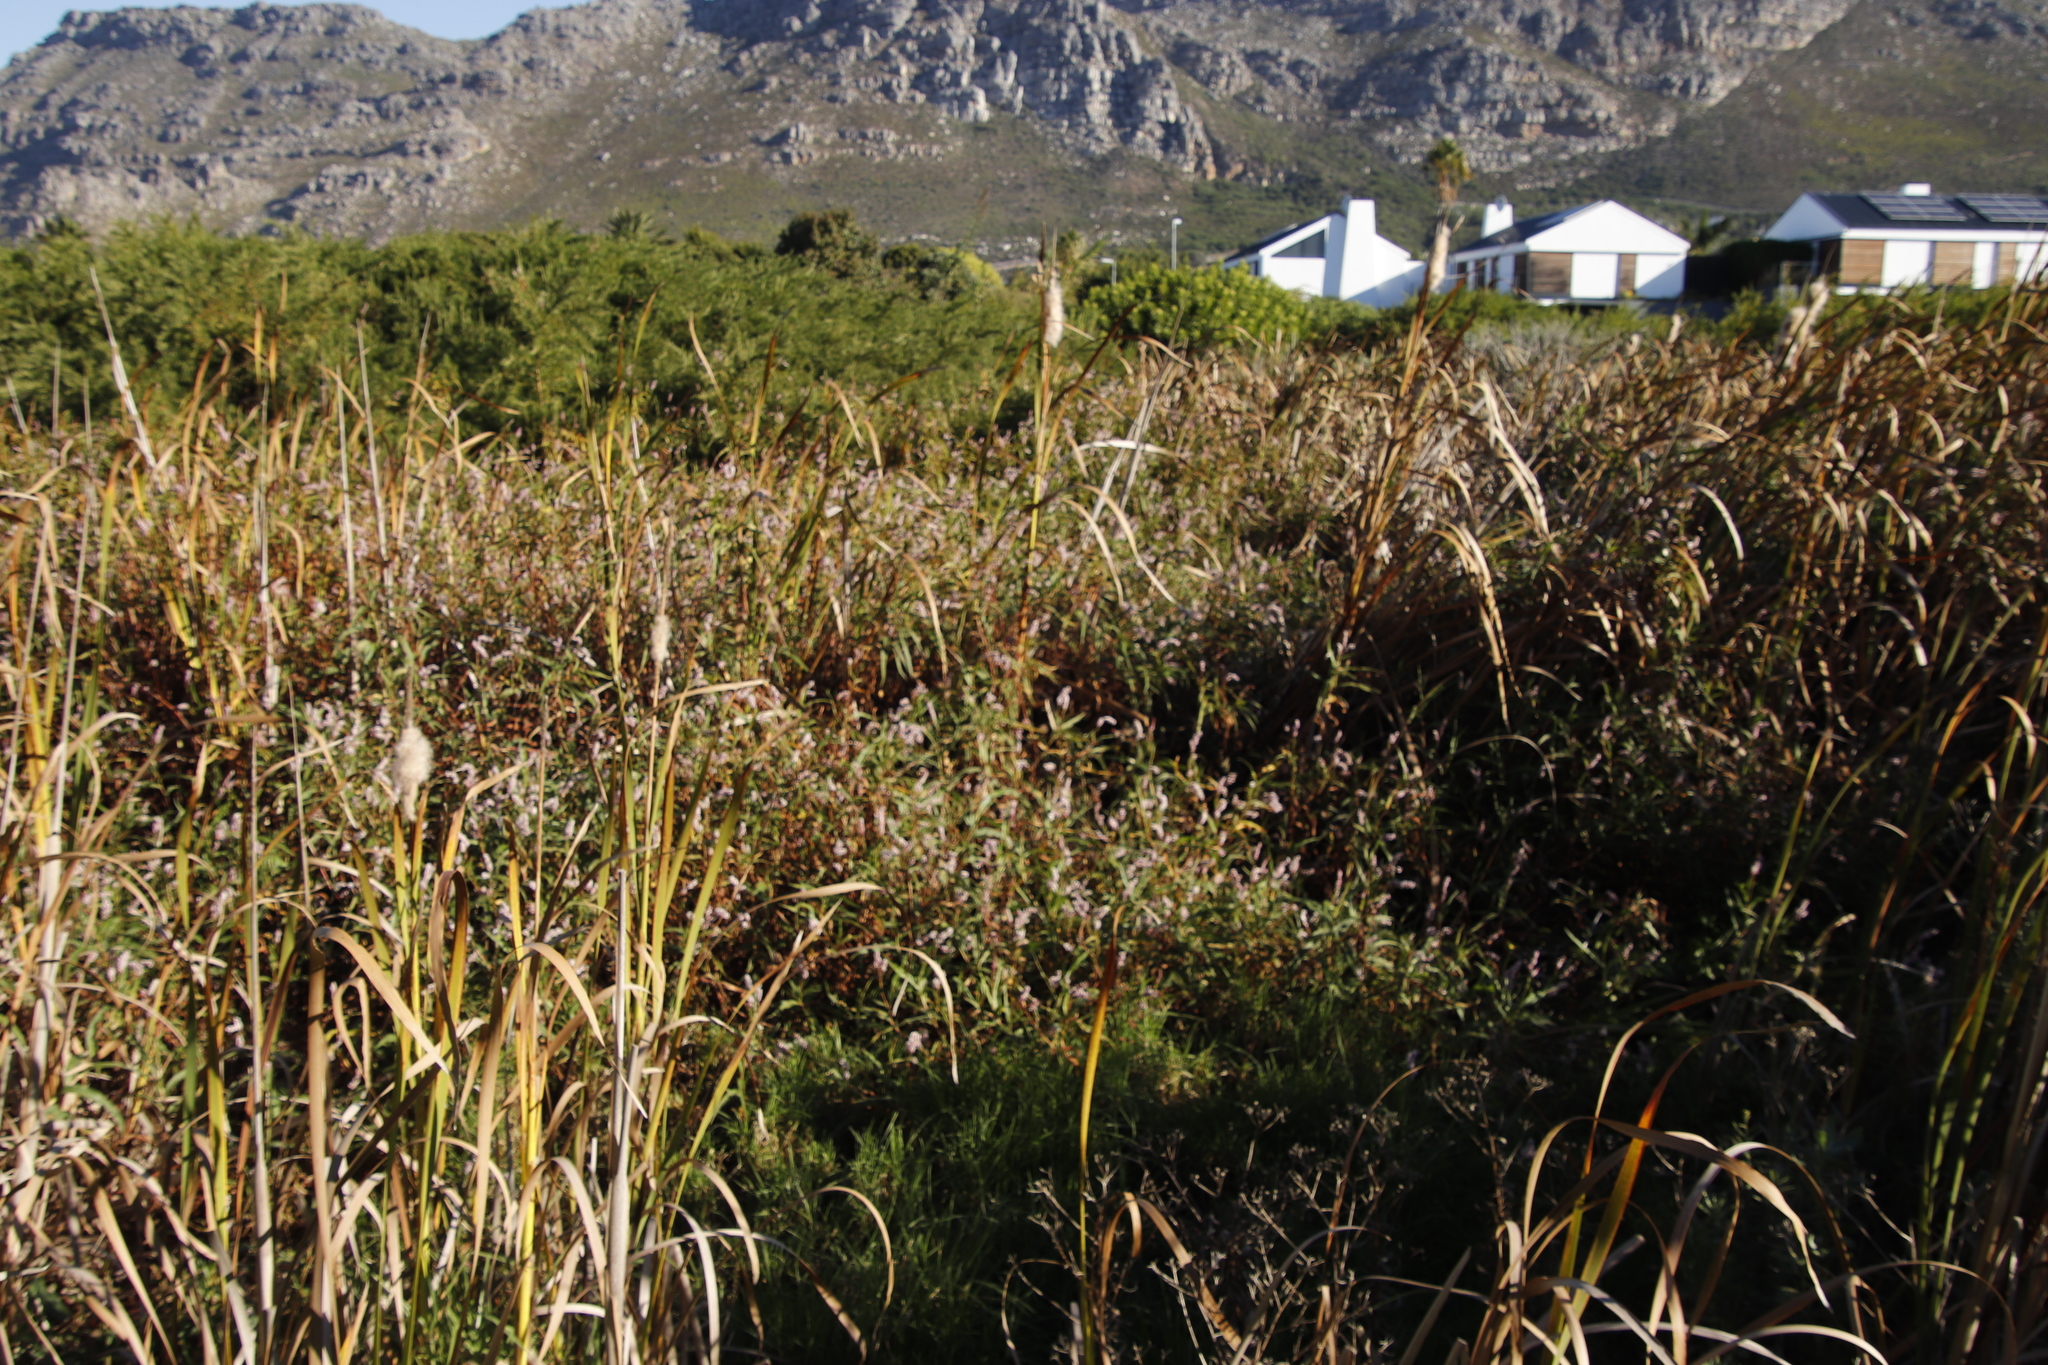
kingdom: Plantae
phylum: Tracheophyta
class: Magnoliopsida
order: Caryophyllales
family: Polygonaceae
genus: Persicaria
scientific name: Persicaria madagascariensis
